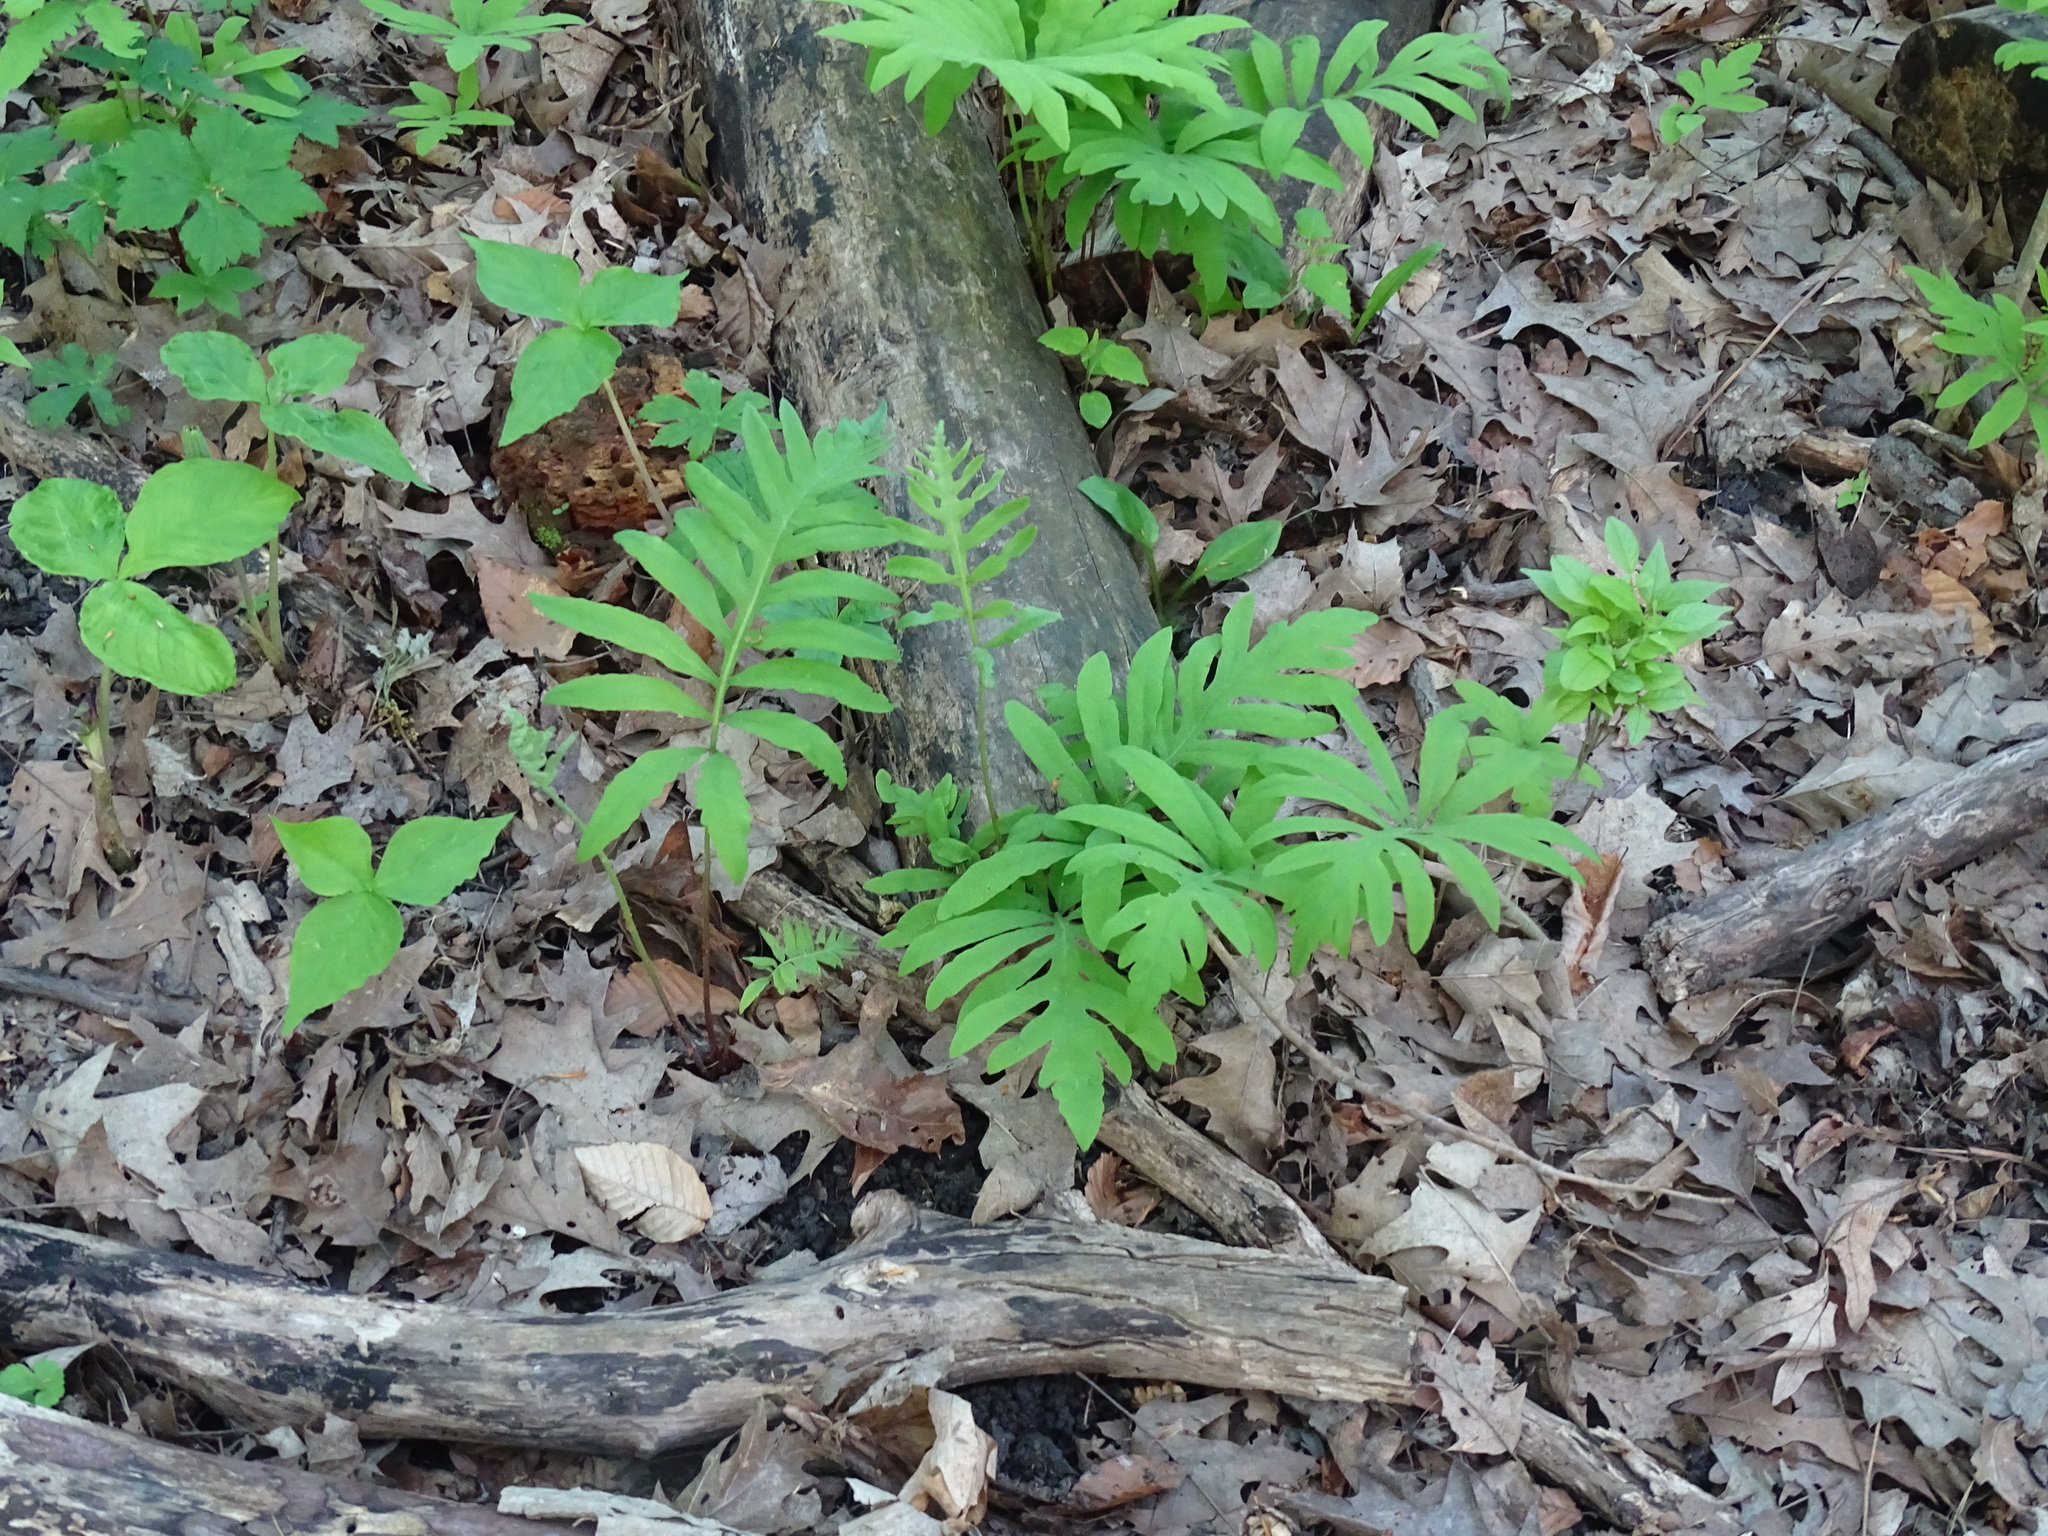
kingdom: Plantae
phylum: Tracheophyta
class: Polypodiopsida
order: Polypodiales
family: Onocleaceae
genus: Onoclea
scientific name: Onoclea sensibilis
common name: Sensitive fern
